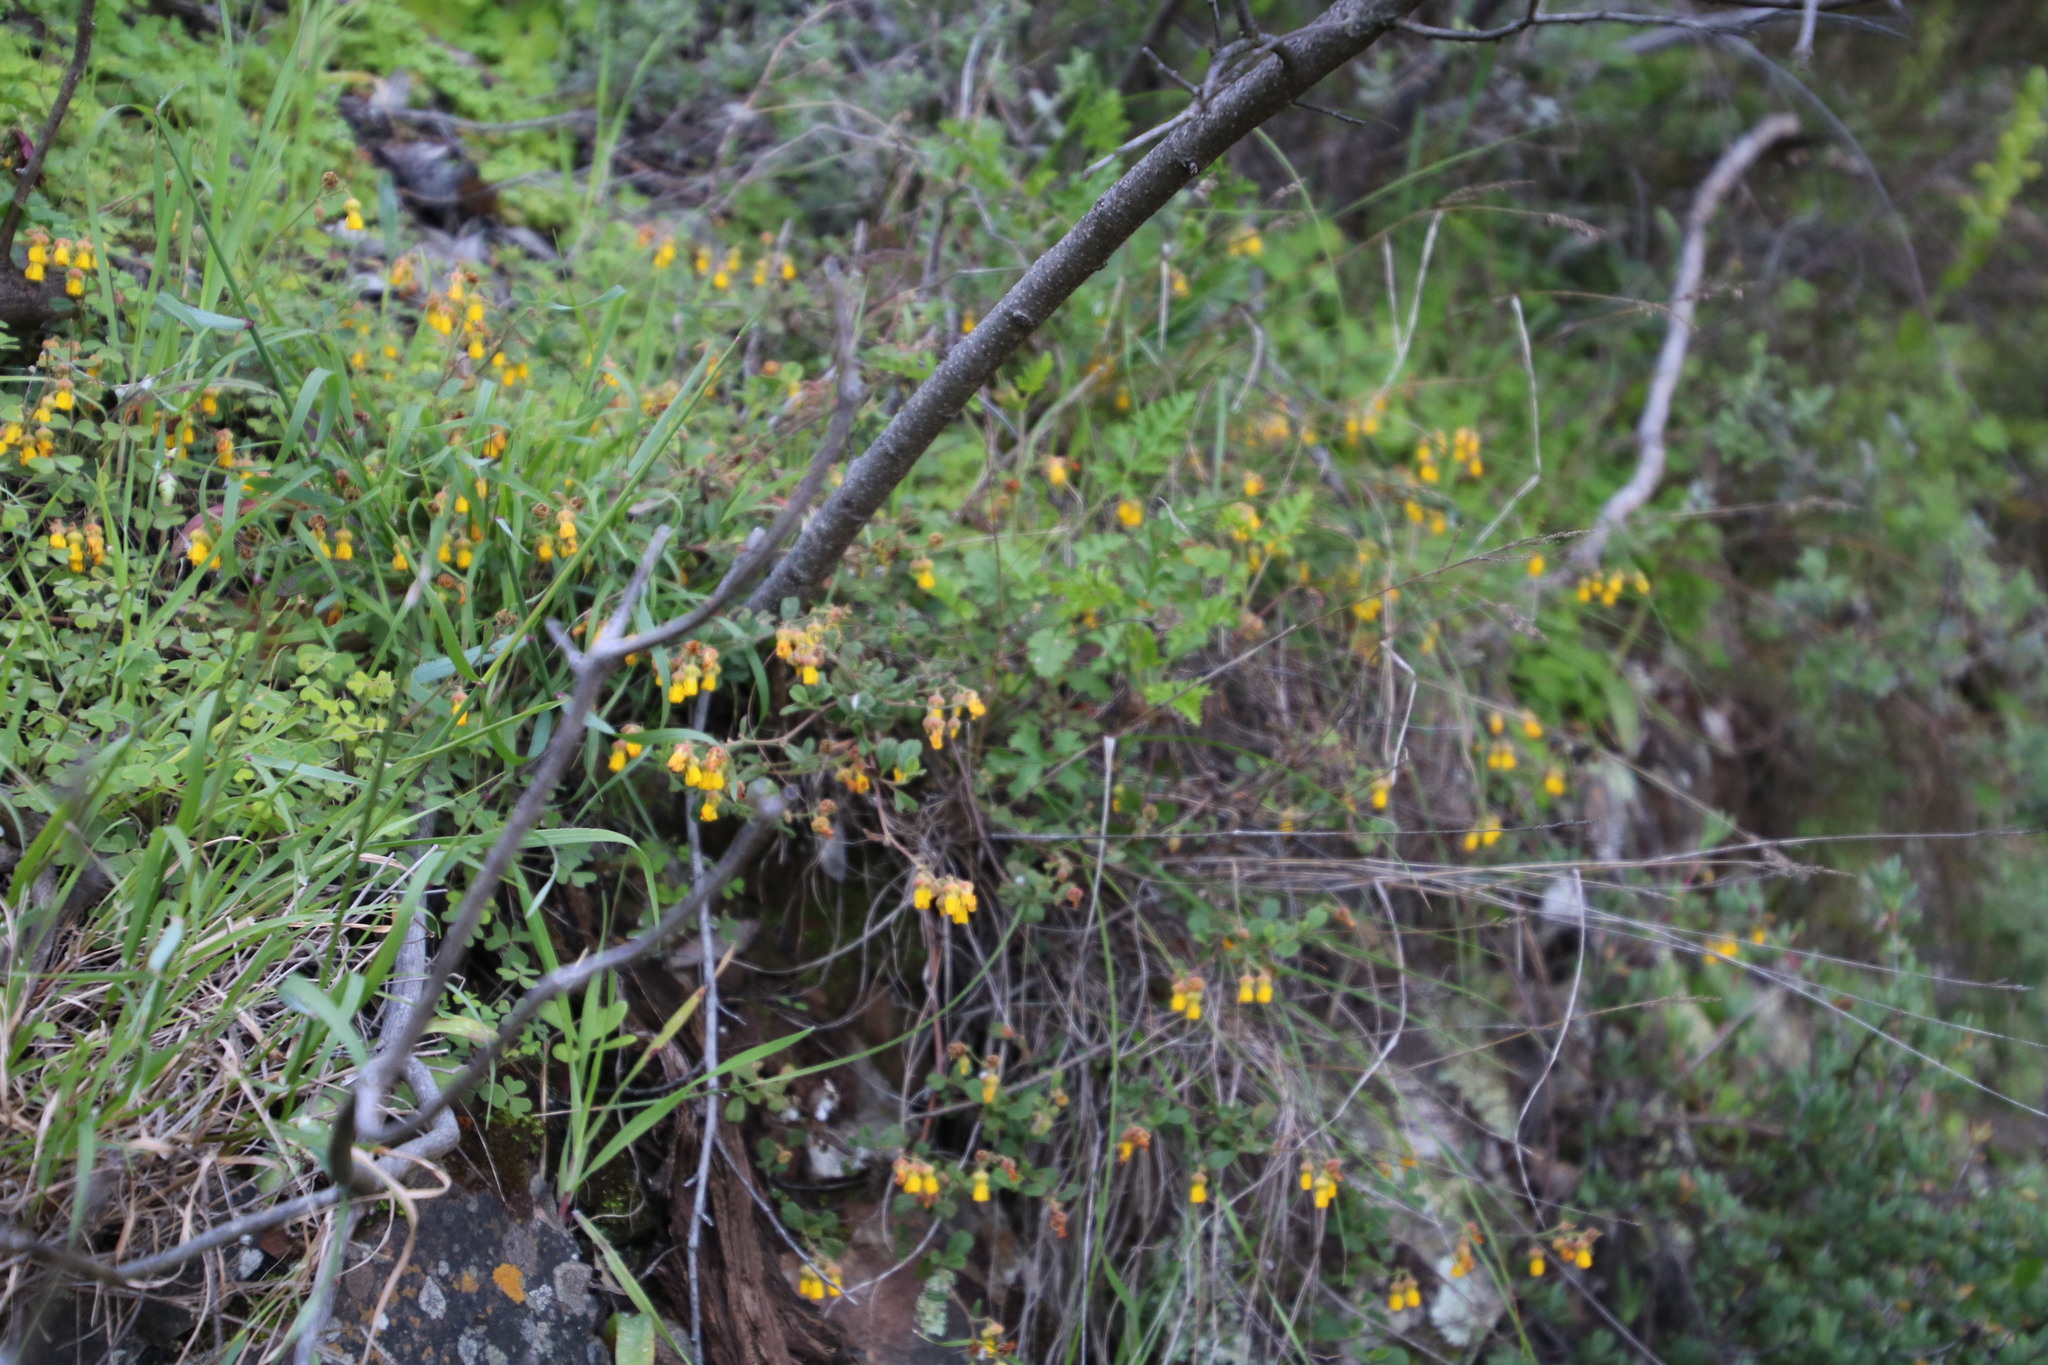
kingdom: Plantae
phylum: Tracheophyta
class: Magnoliopsida
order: Malvales
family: Malvaceae
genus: Hermannia
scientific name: Hermannia multiflora
